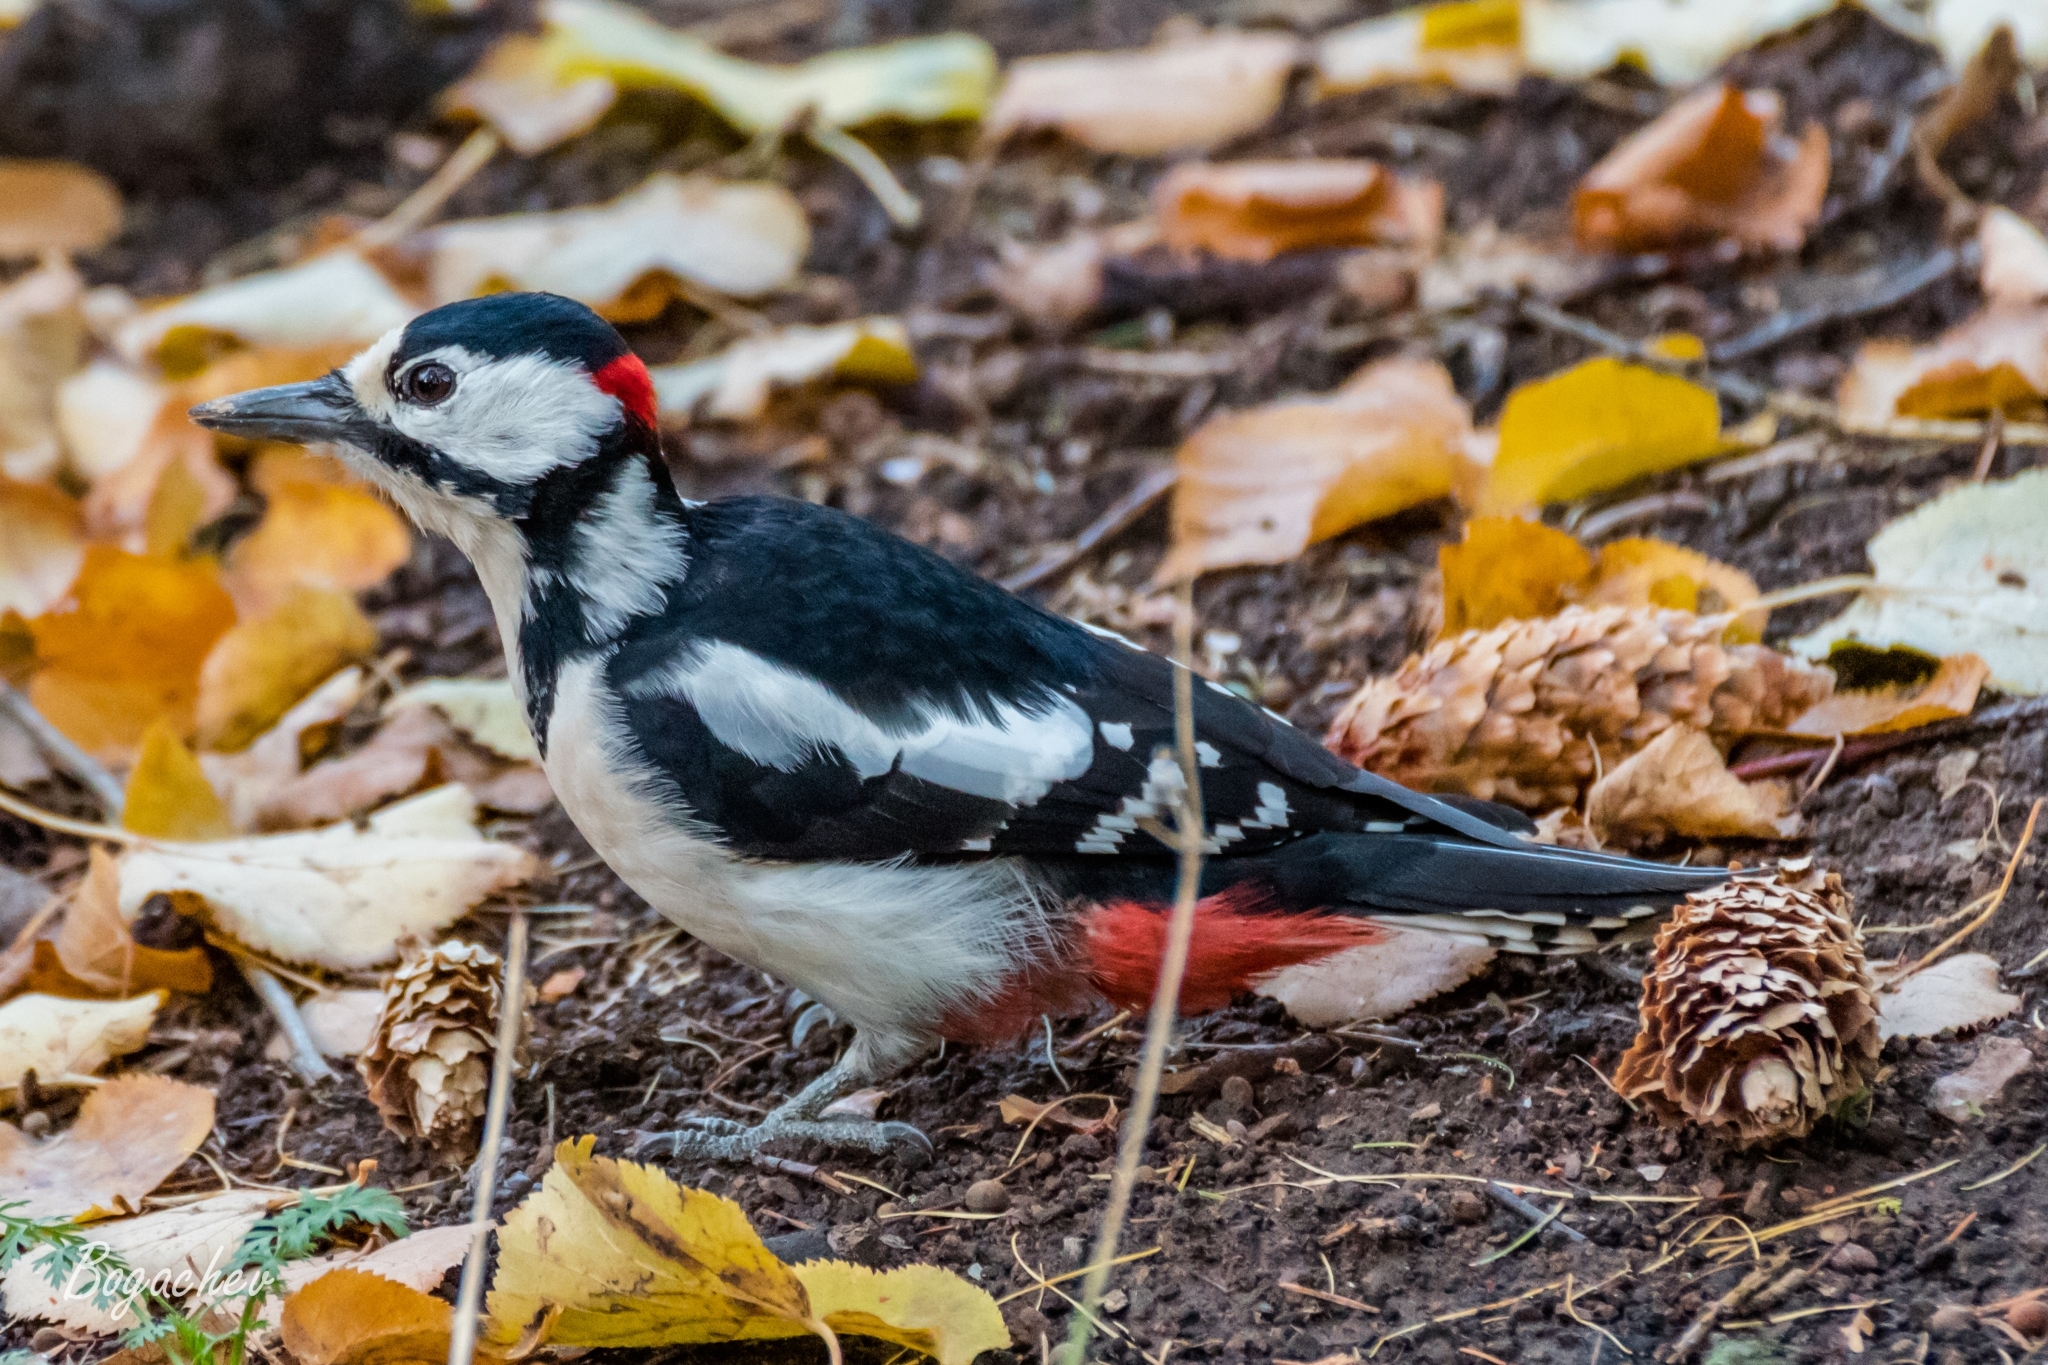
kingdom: Animalia
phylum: Chordata
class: Aves
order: Piciformes
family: Picidae
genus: Dendrocopos
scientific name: Dendrocopos major
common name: Great spotted woodpecker
